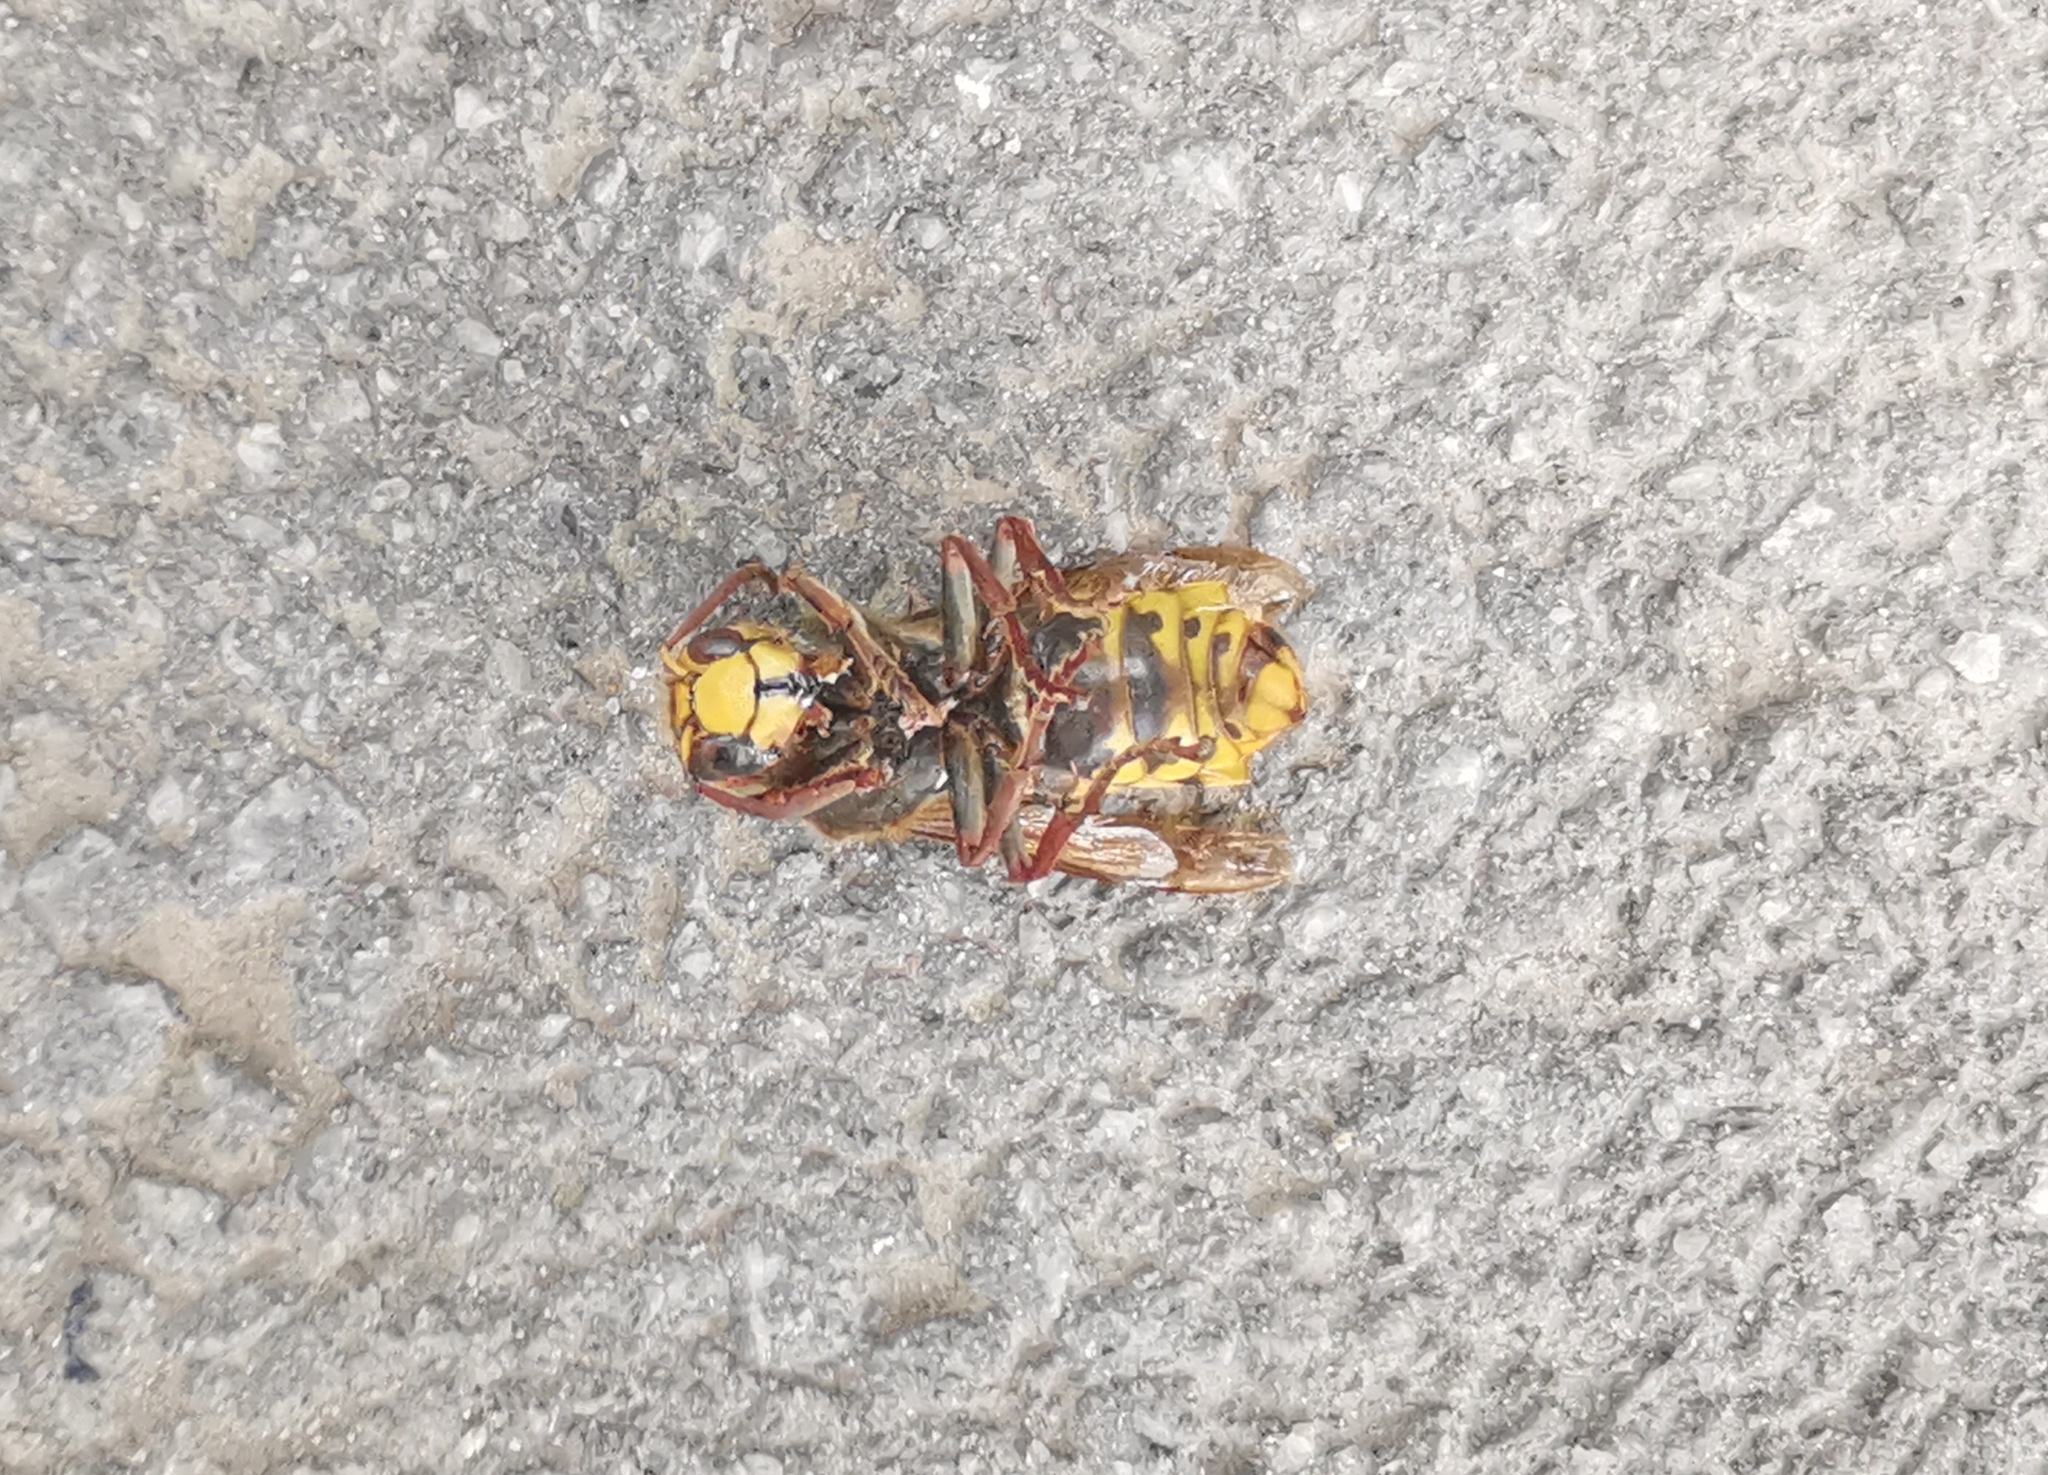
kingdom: Animalia
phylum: Arthropoda
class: Insecta
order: Hymenoptera
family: Vespidae
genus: Vespa
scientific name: Vespa crabro
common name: Hornet
